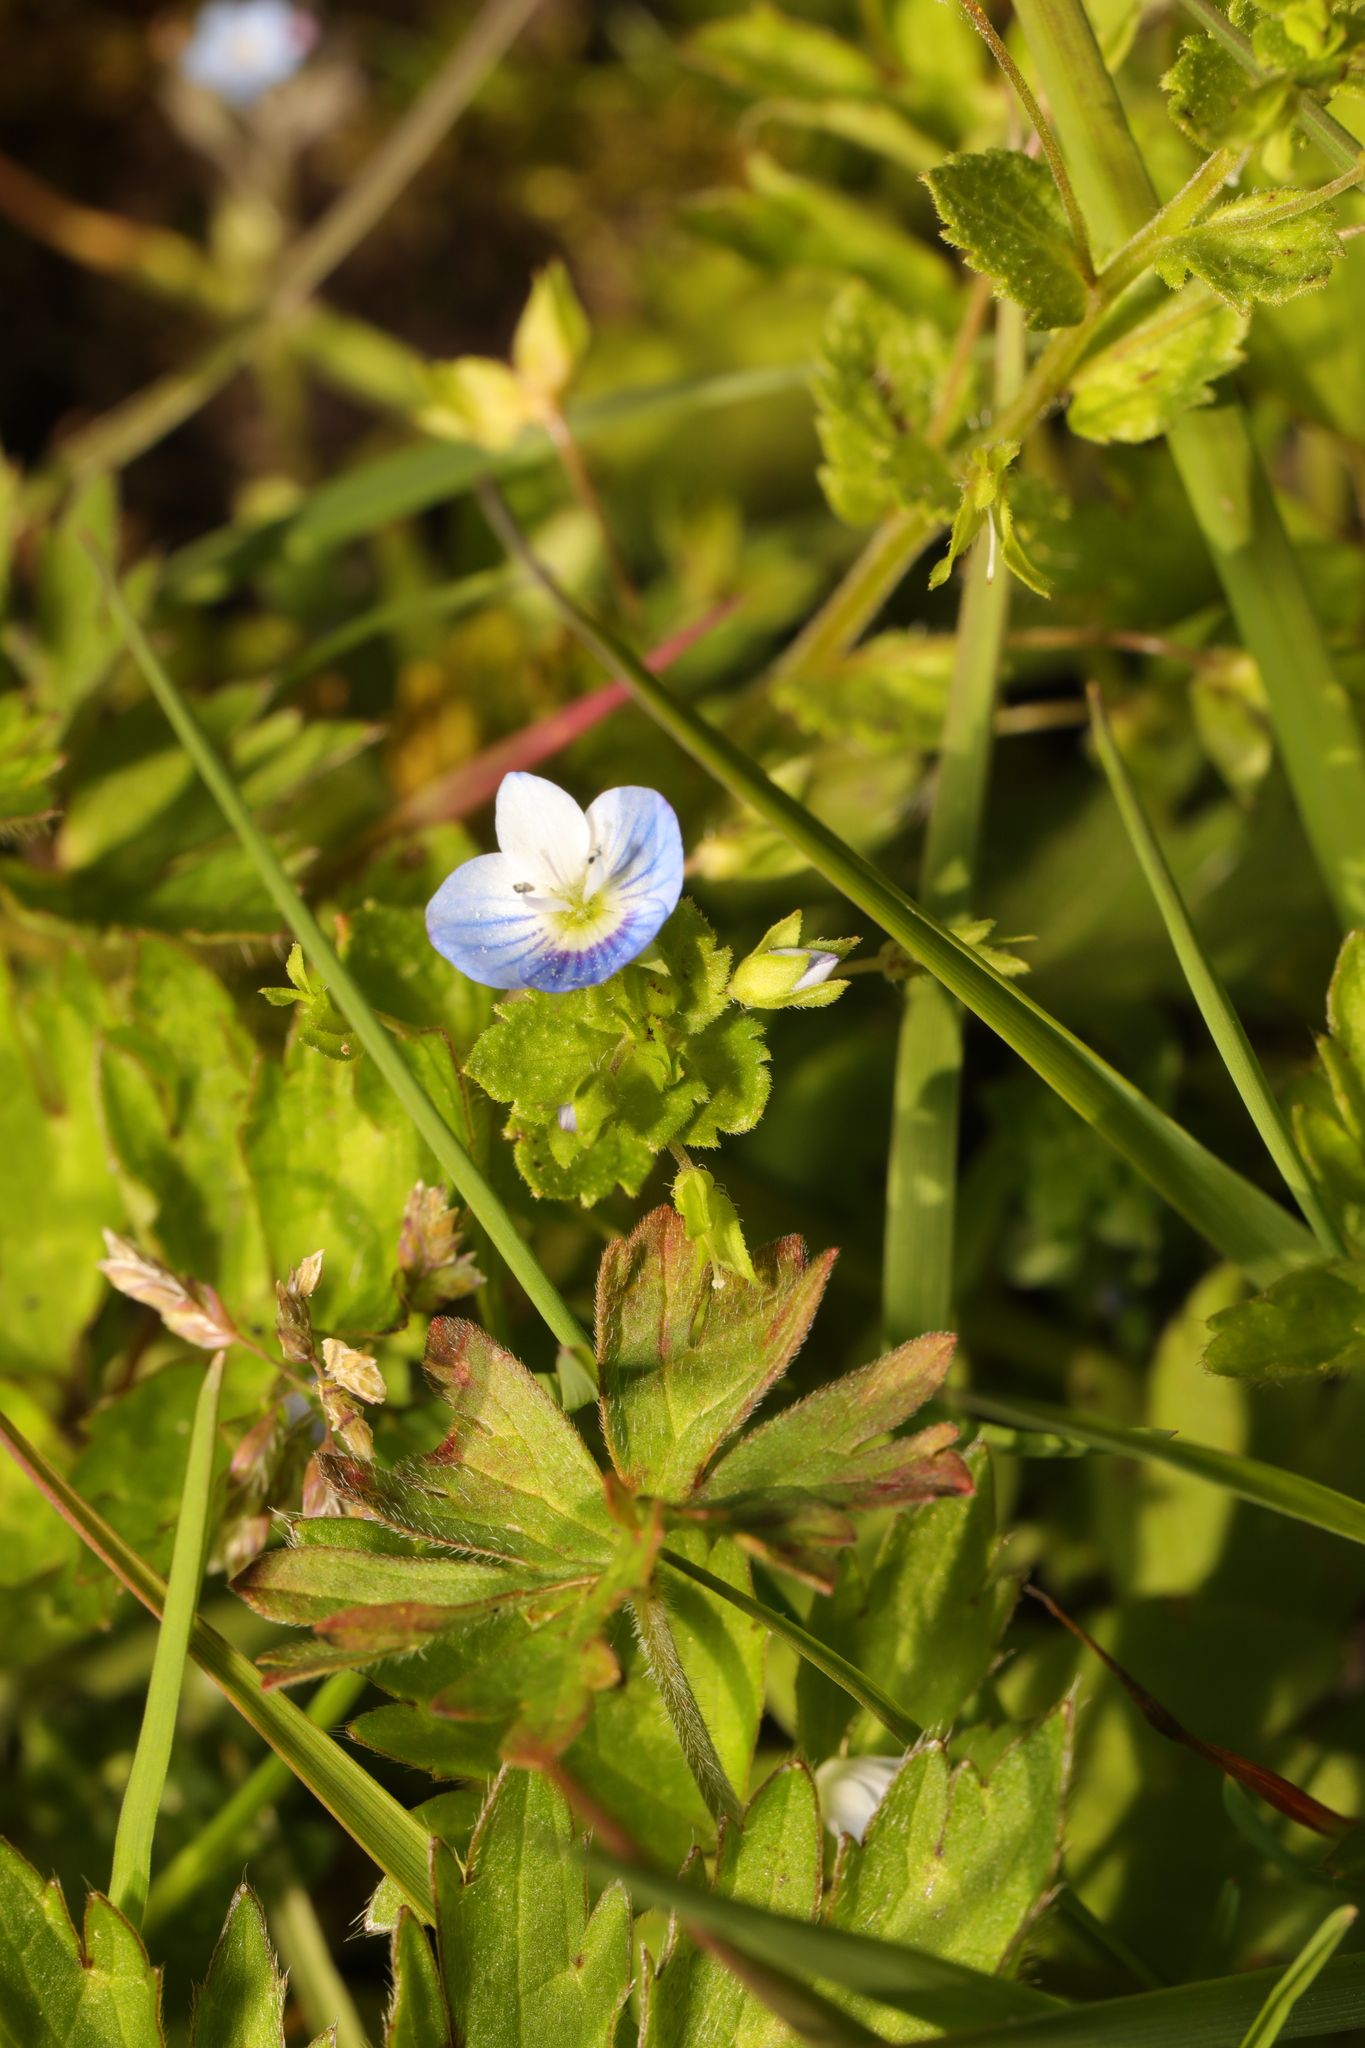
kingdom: Plantae
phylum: Tracheophyta
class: Magnoliopsida
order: Lamiales
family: Plantaginaceae
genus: Veronica
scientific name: Veronica persica
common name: Common field-speedwell
